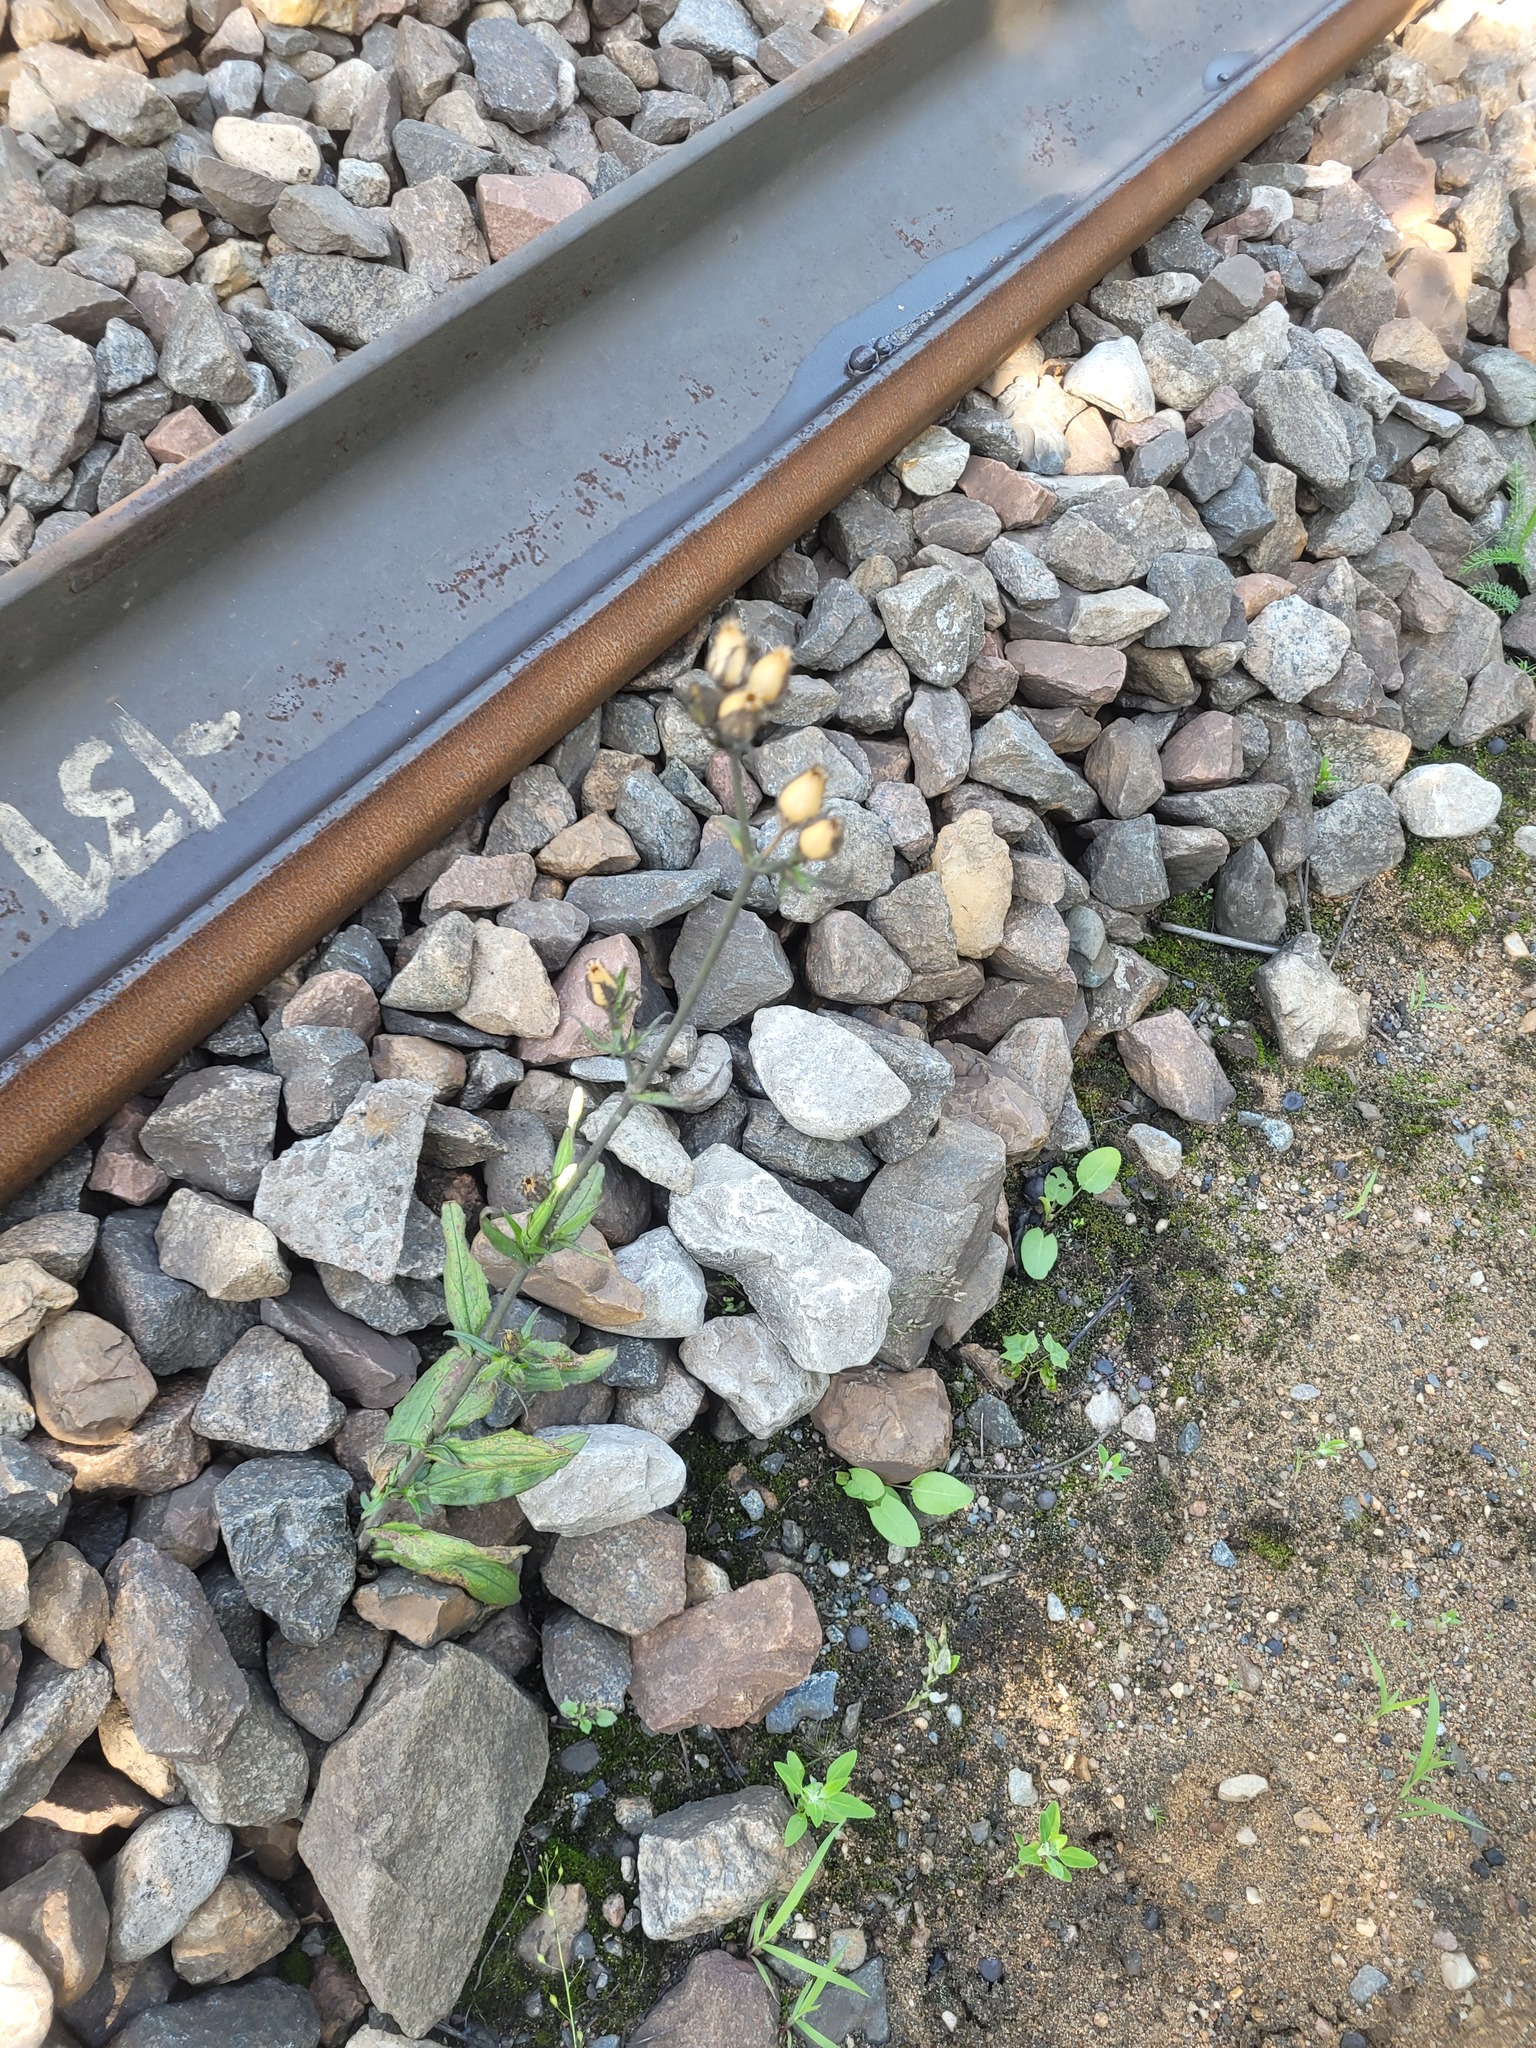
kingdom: Plantae
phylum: Tracheophyta
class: Magnoliopsida
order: Caryophyllales
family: Caryophyllaceae
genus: Silene
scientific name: Silene noctiflora
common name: Night-flowering catchfly
